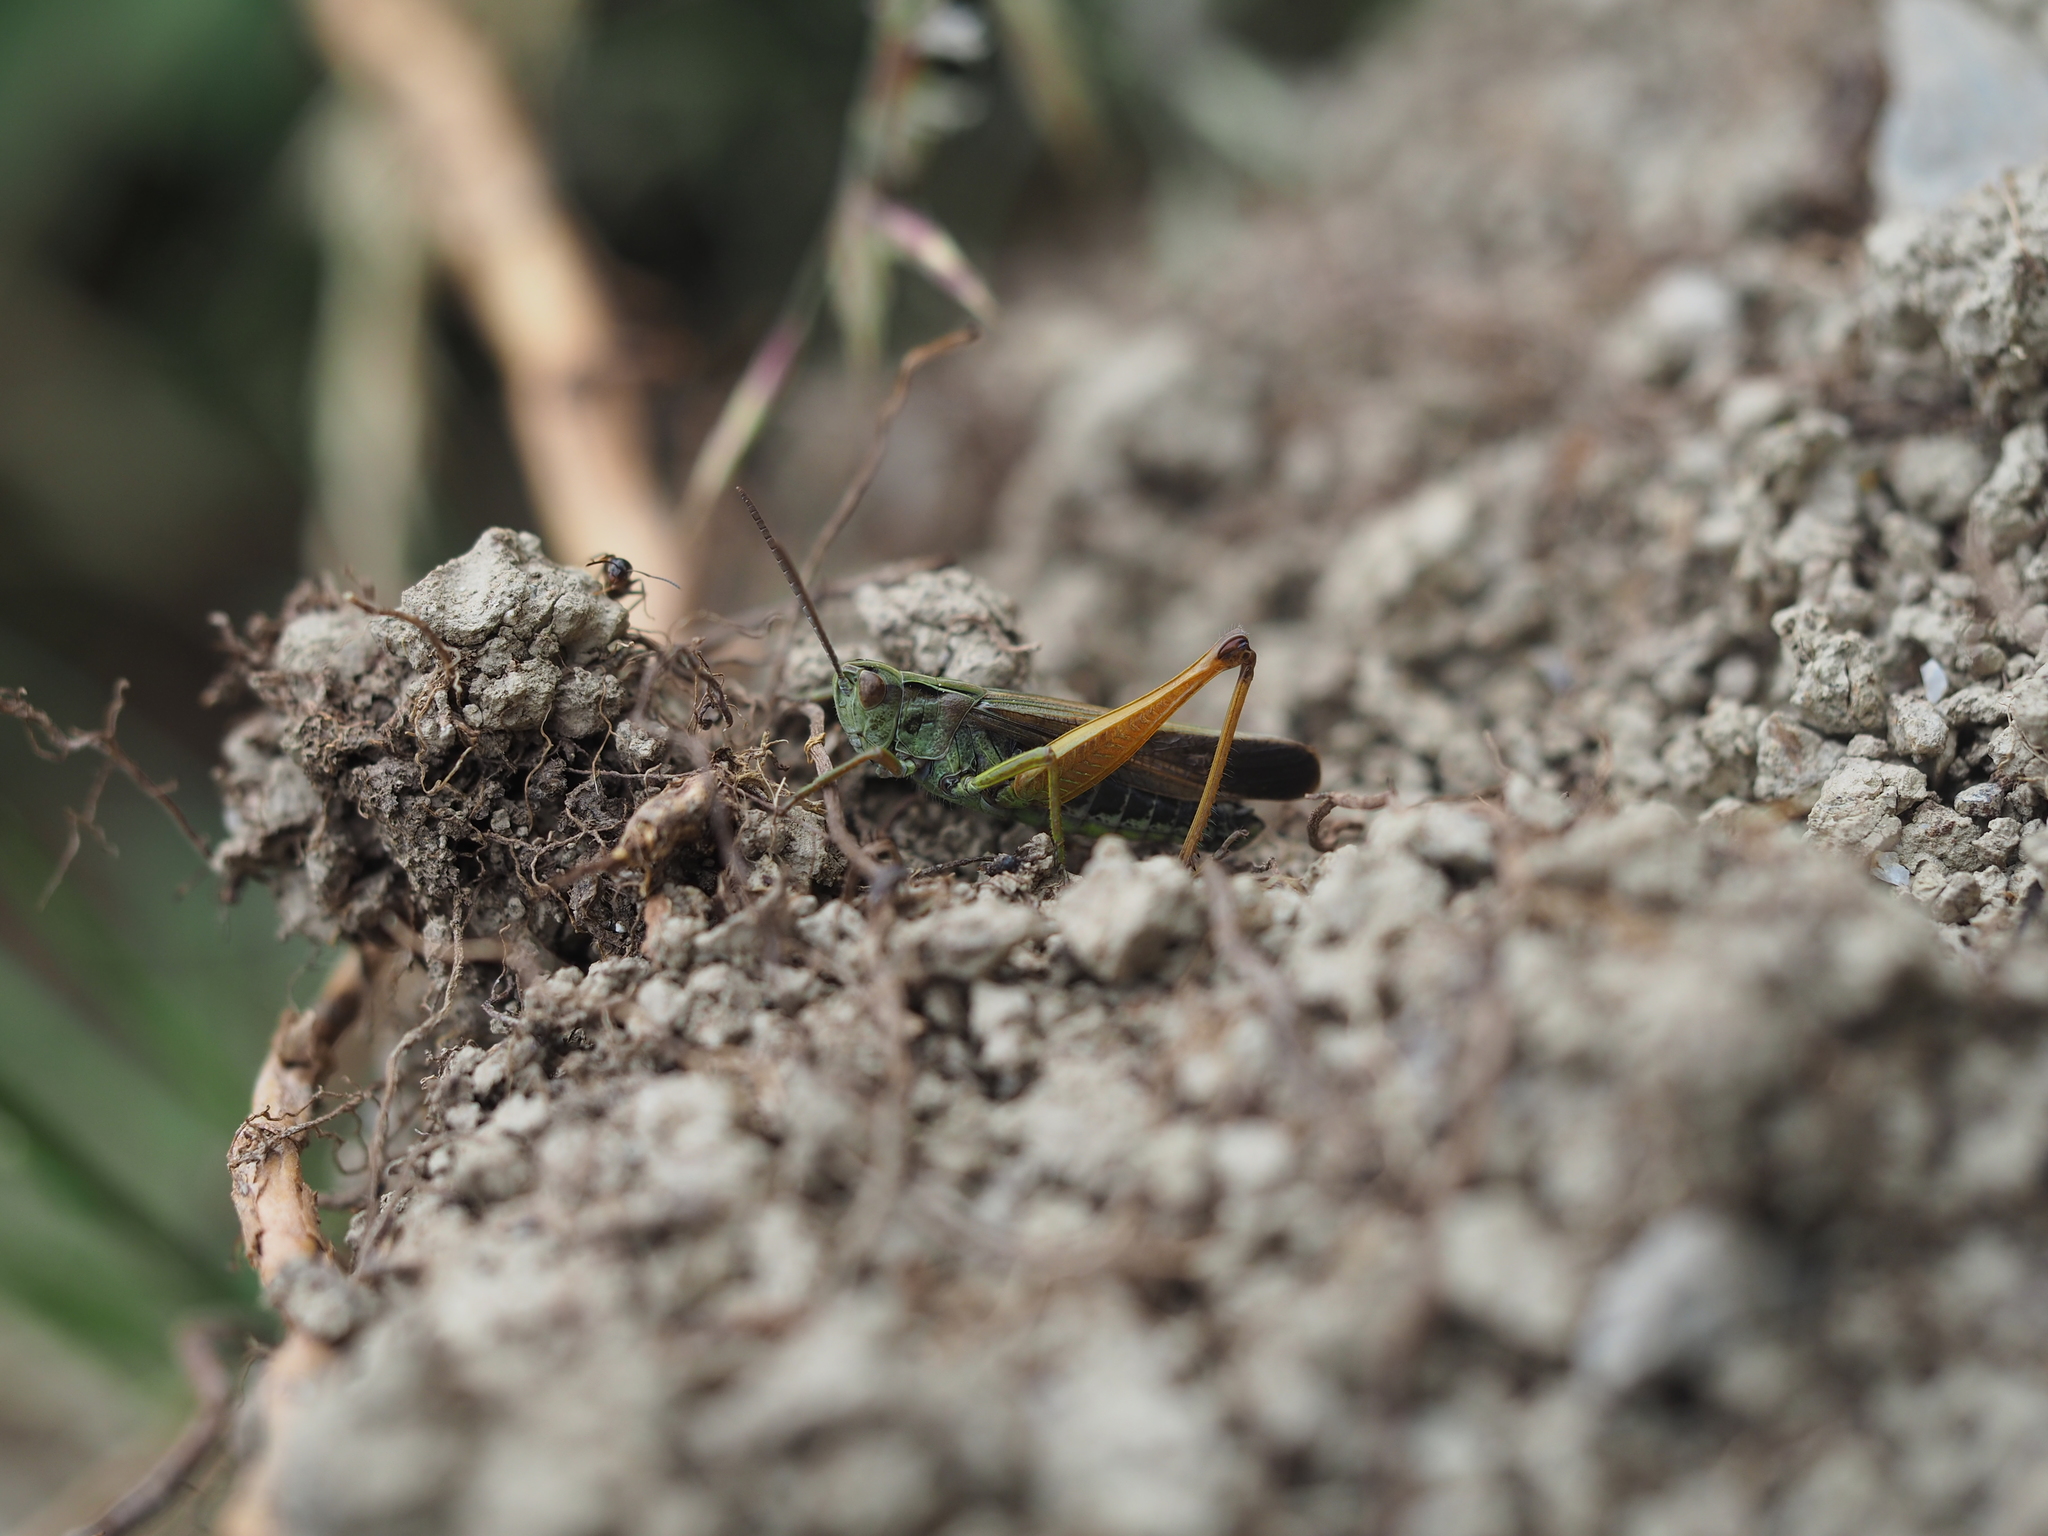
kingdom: Animalia
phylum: Arthropoda
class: Insecta
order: Orthoptera
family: Acrididae
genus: Omocestus
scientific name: Omocestus viridulus
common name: Common green grasshopper
